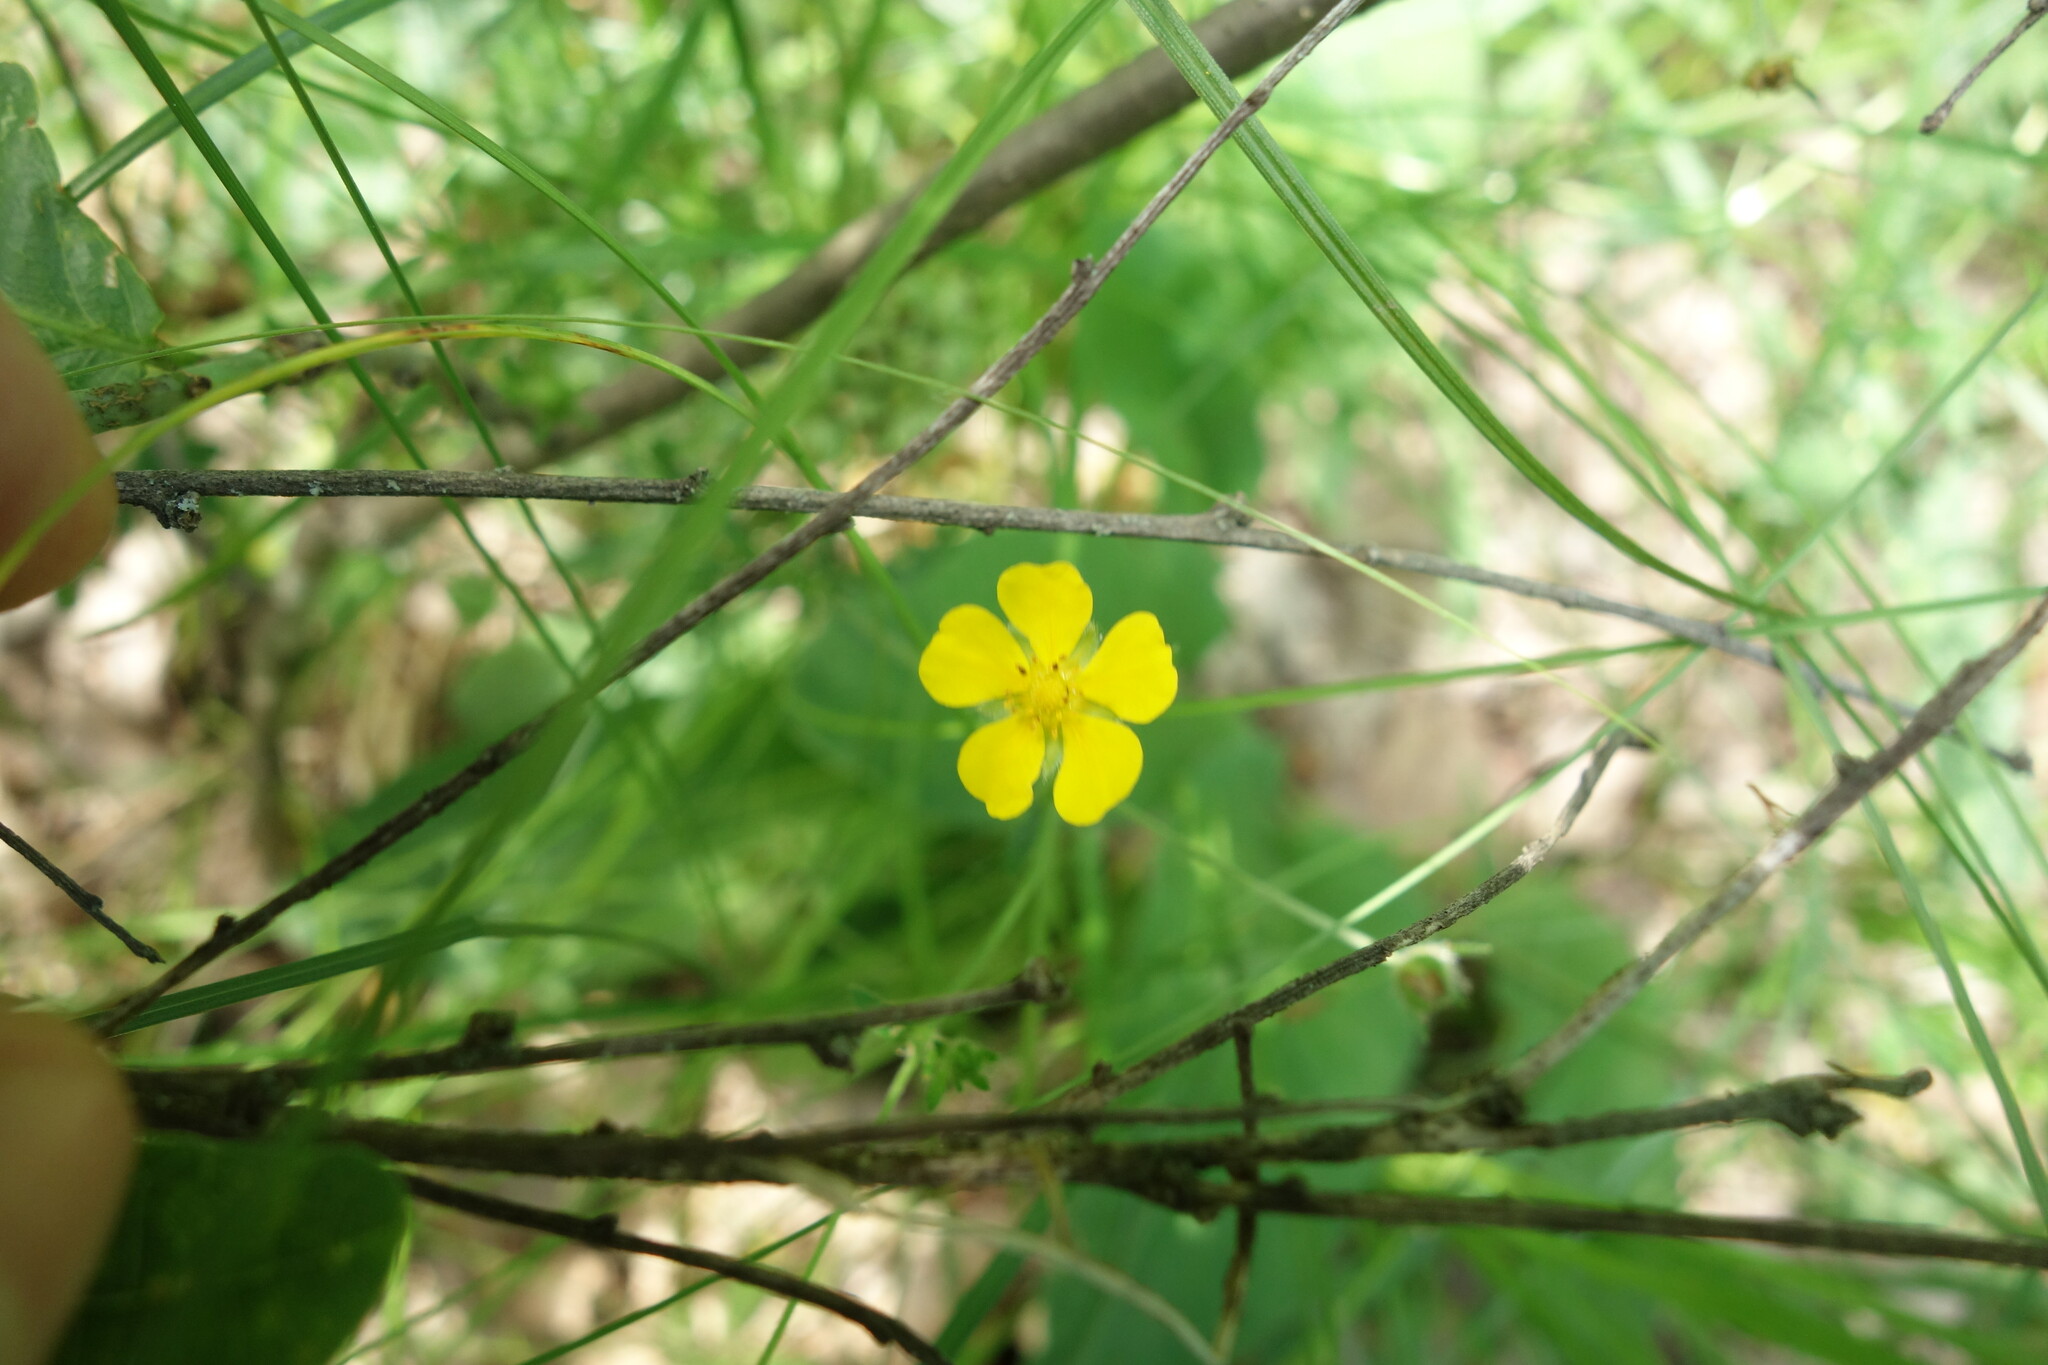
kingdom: Plantae
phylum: Tracheophyta
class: Magnoliopsida
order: Rosales
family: Rosaceae
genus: Potentilla
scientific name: Potentilla thuringiaca
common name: European cinquefoil
